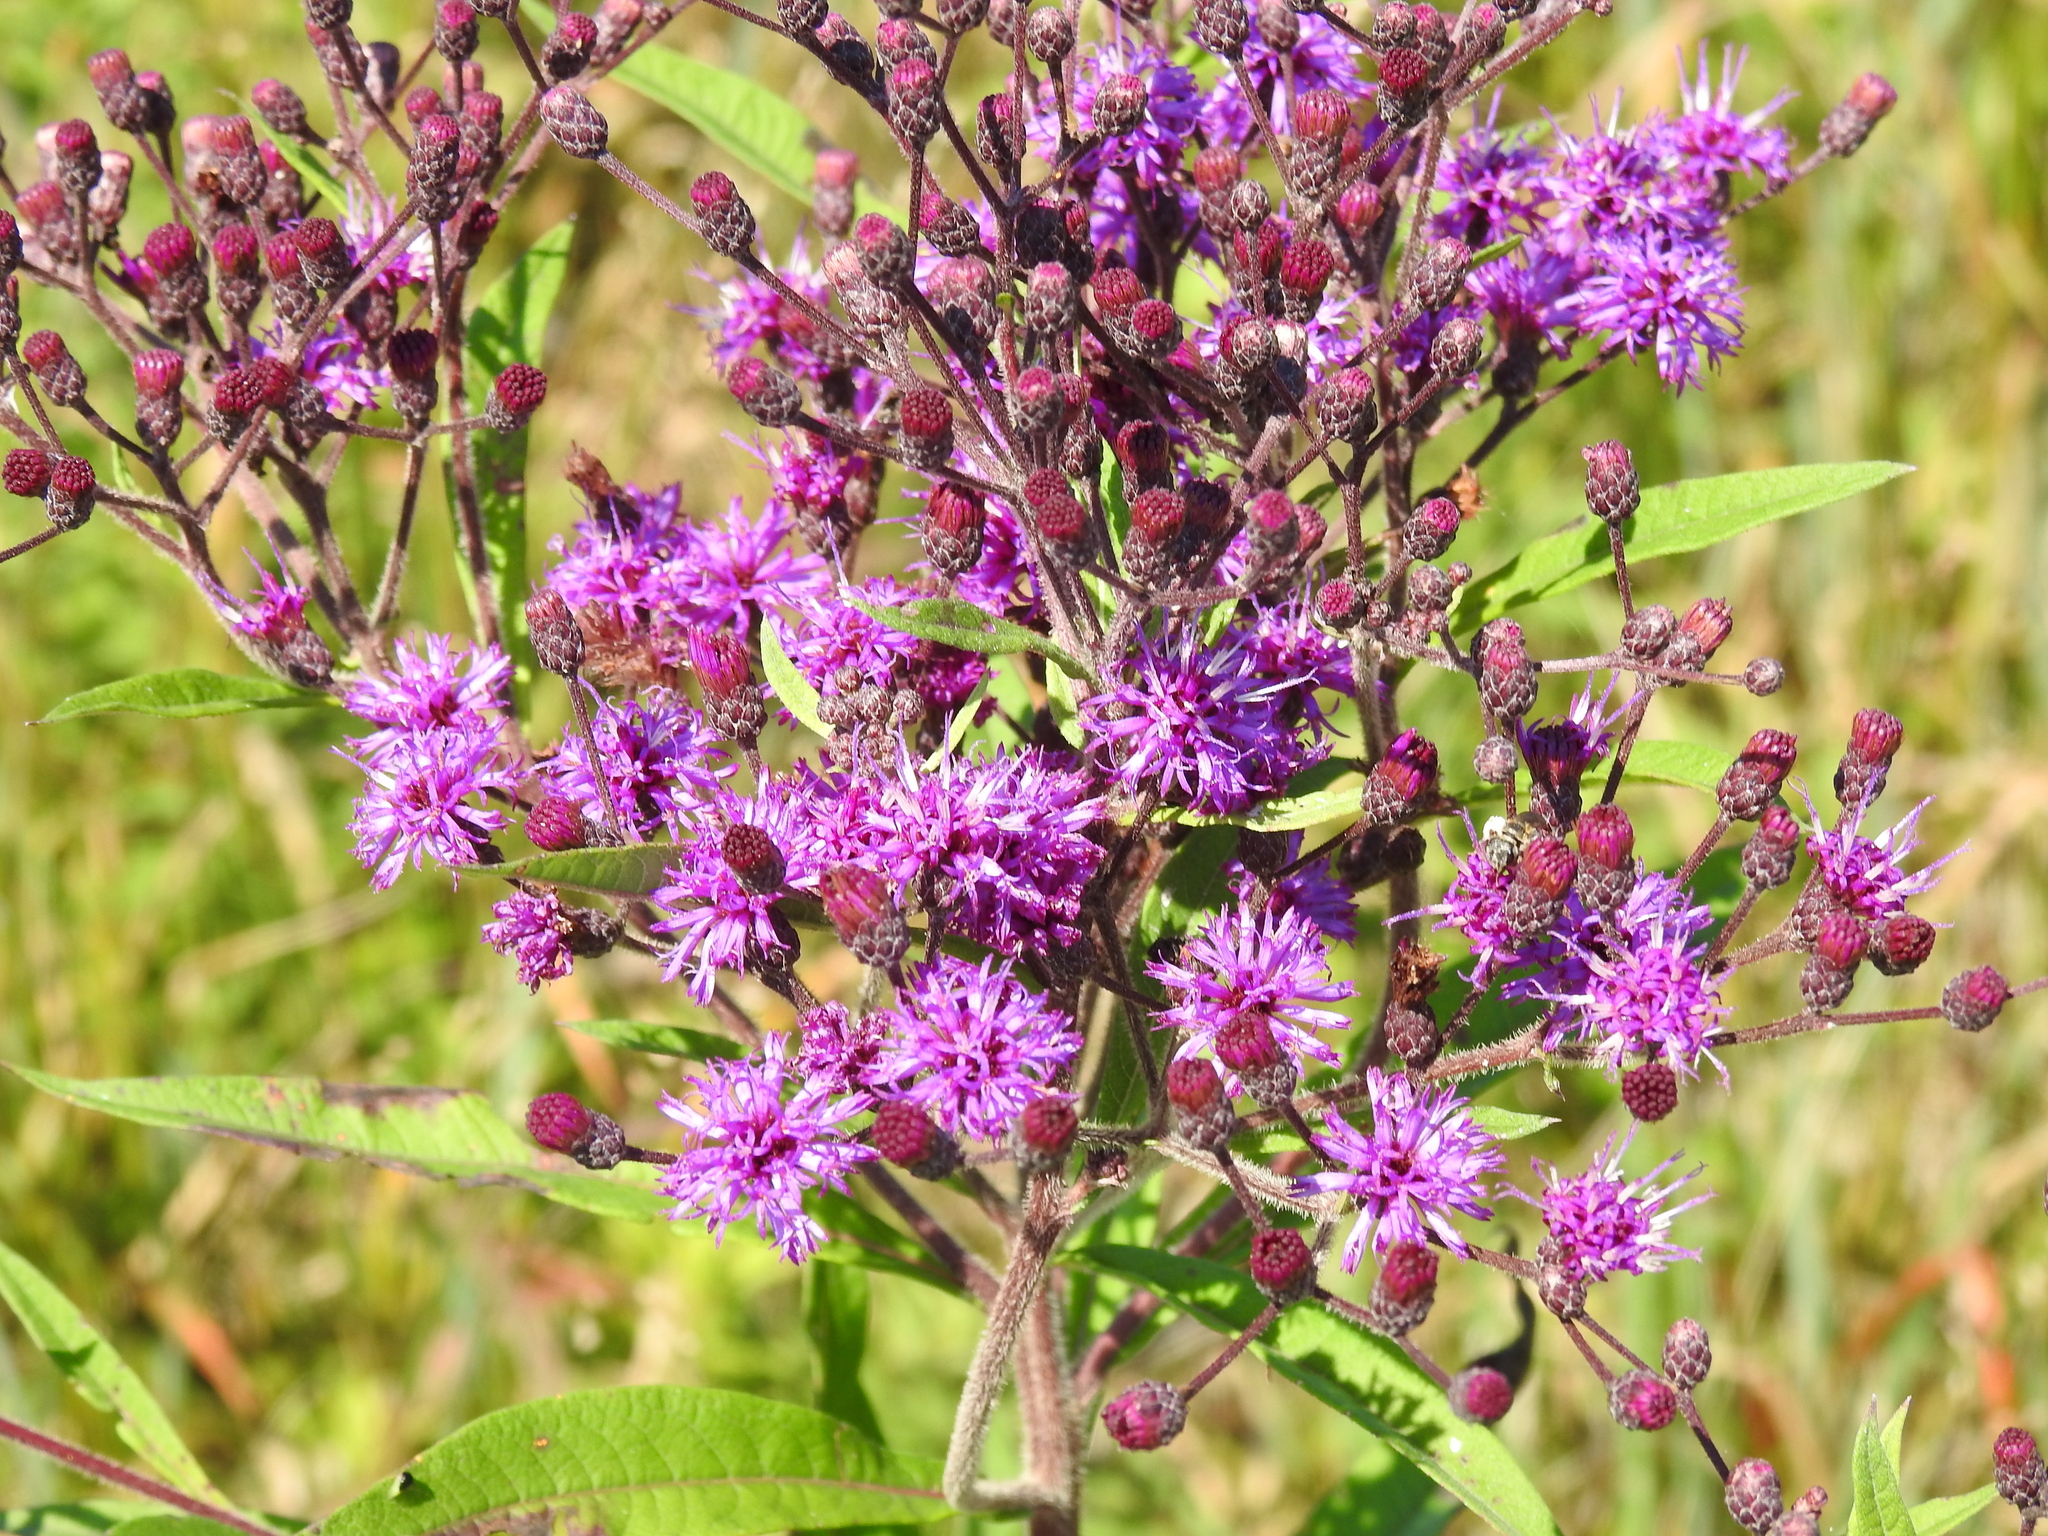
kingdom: Plantae
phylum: Tracheophyta
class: Magnoliopsida
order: Asterales
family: Asteraceae
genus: Vernonia
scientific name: Vernonia gigantea
